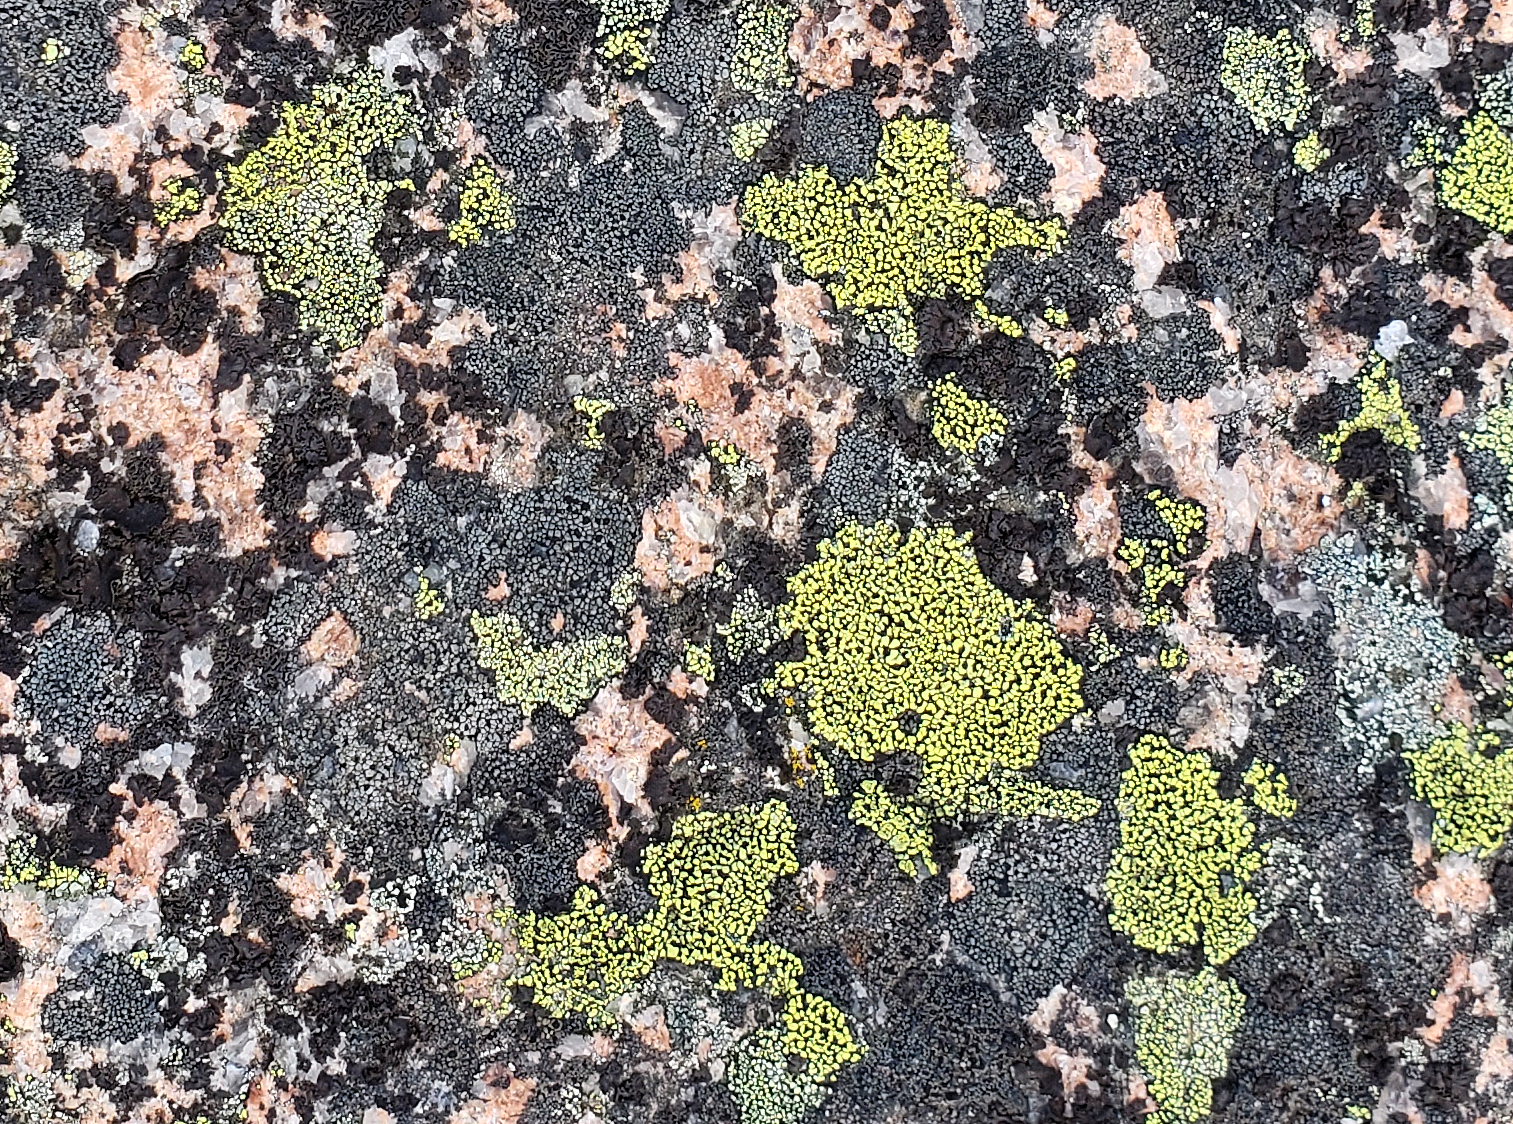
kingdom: Fungi
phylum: Ascomycota
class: Lecanoromycetes
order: Rhizocarpales
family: Rhizocarpaceae
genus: Rhizocarpon
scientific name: Rhizocarpon geographicum
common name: Yellow map lichen
